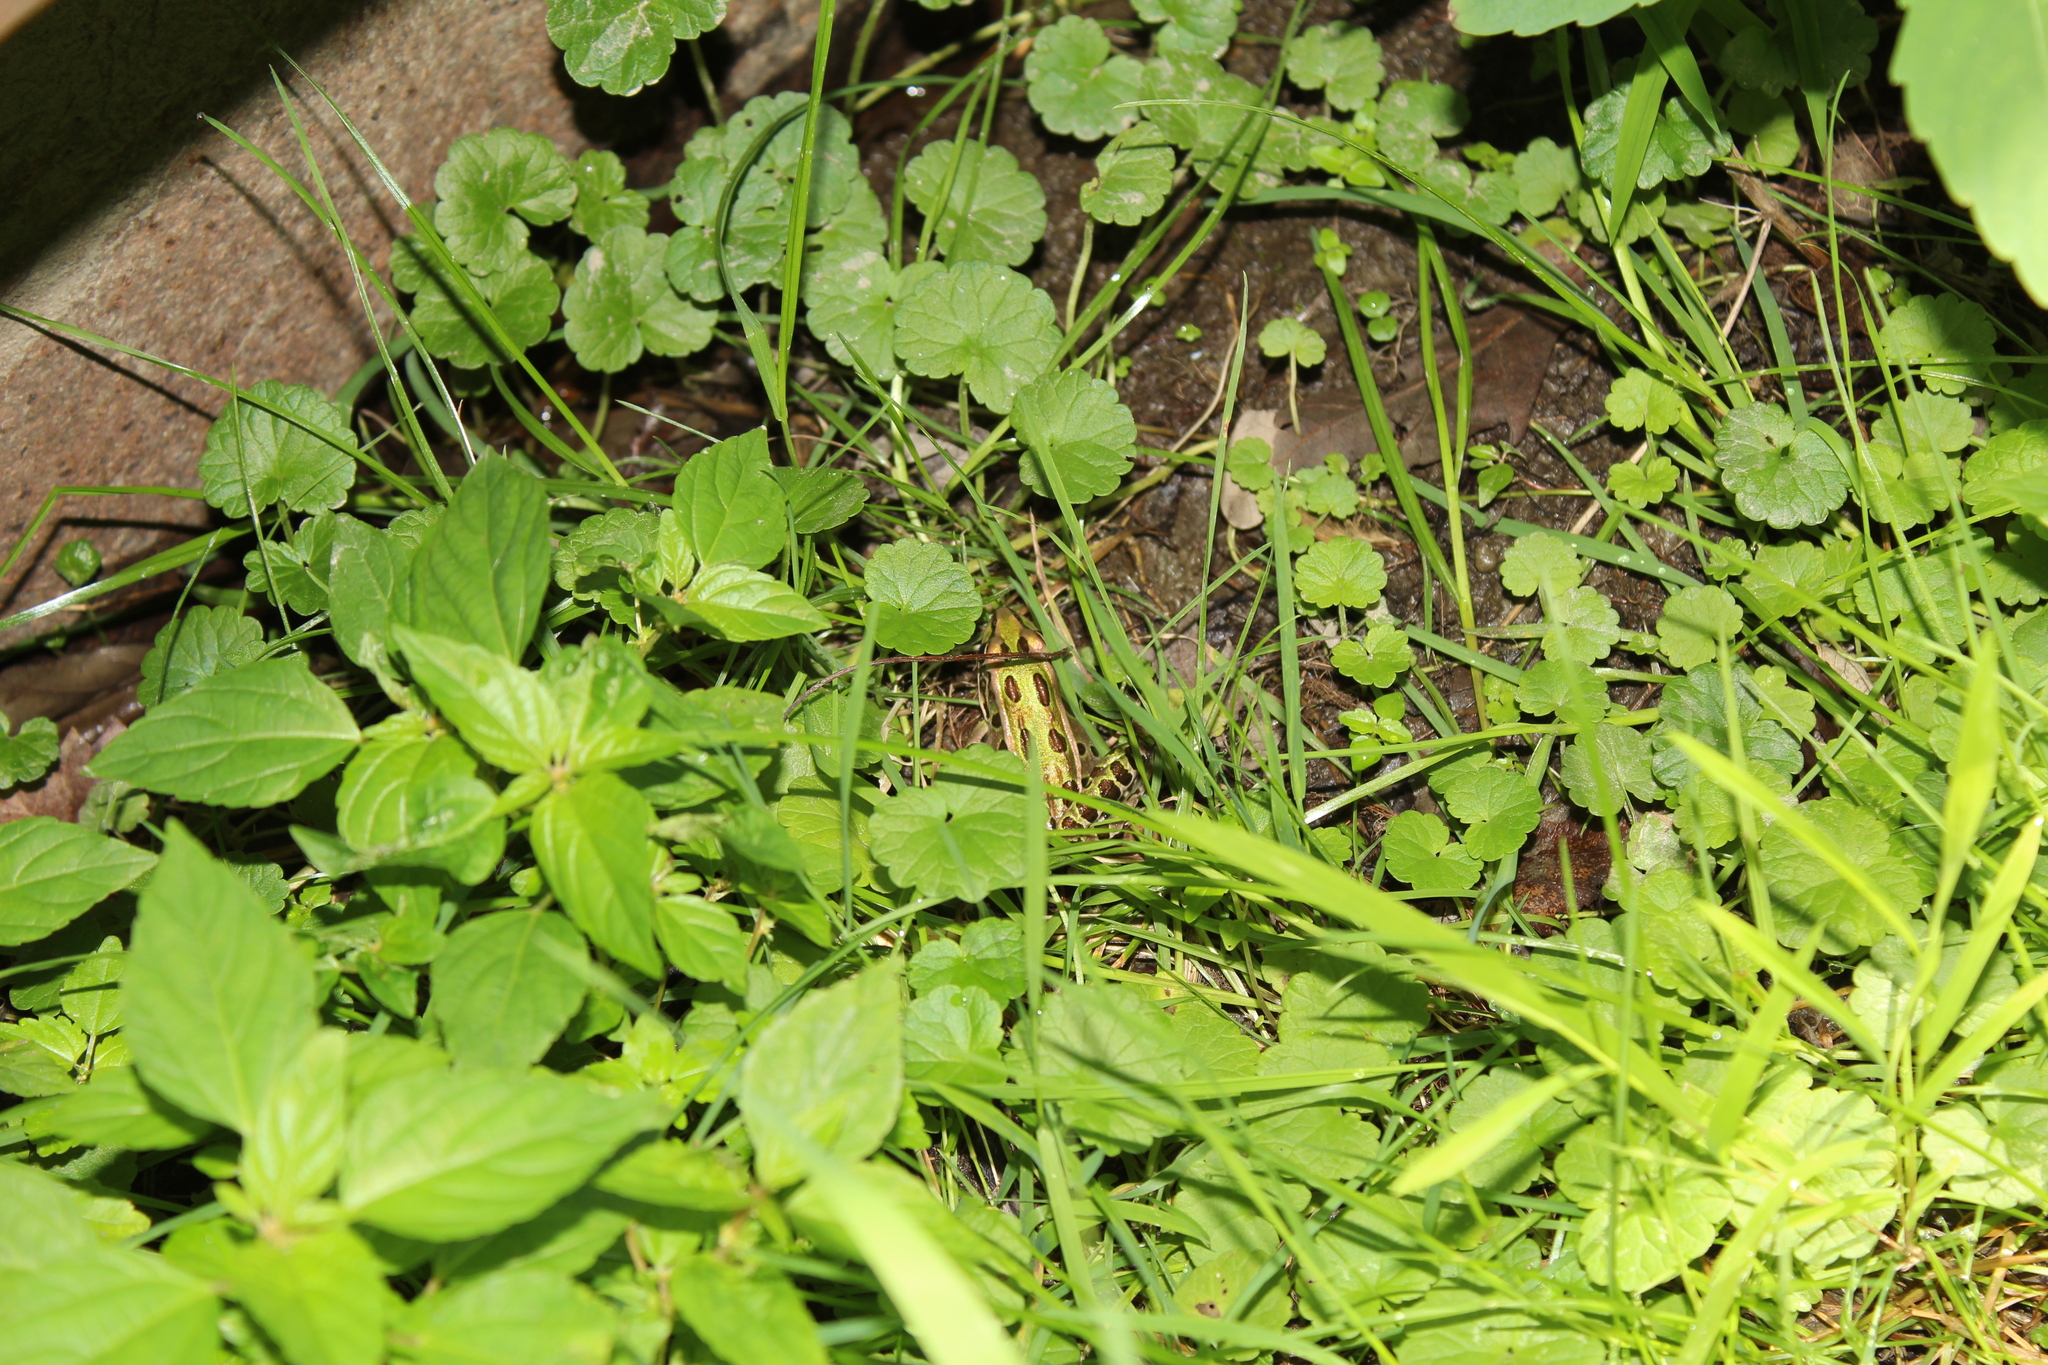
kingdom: Animalia
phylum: Chordata
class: Amphibia
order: Anura
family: Ranidae
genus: Lithobates
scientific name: Lithobates pipiens
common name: Northern leopard frog
